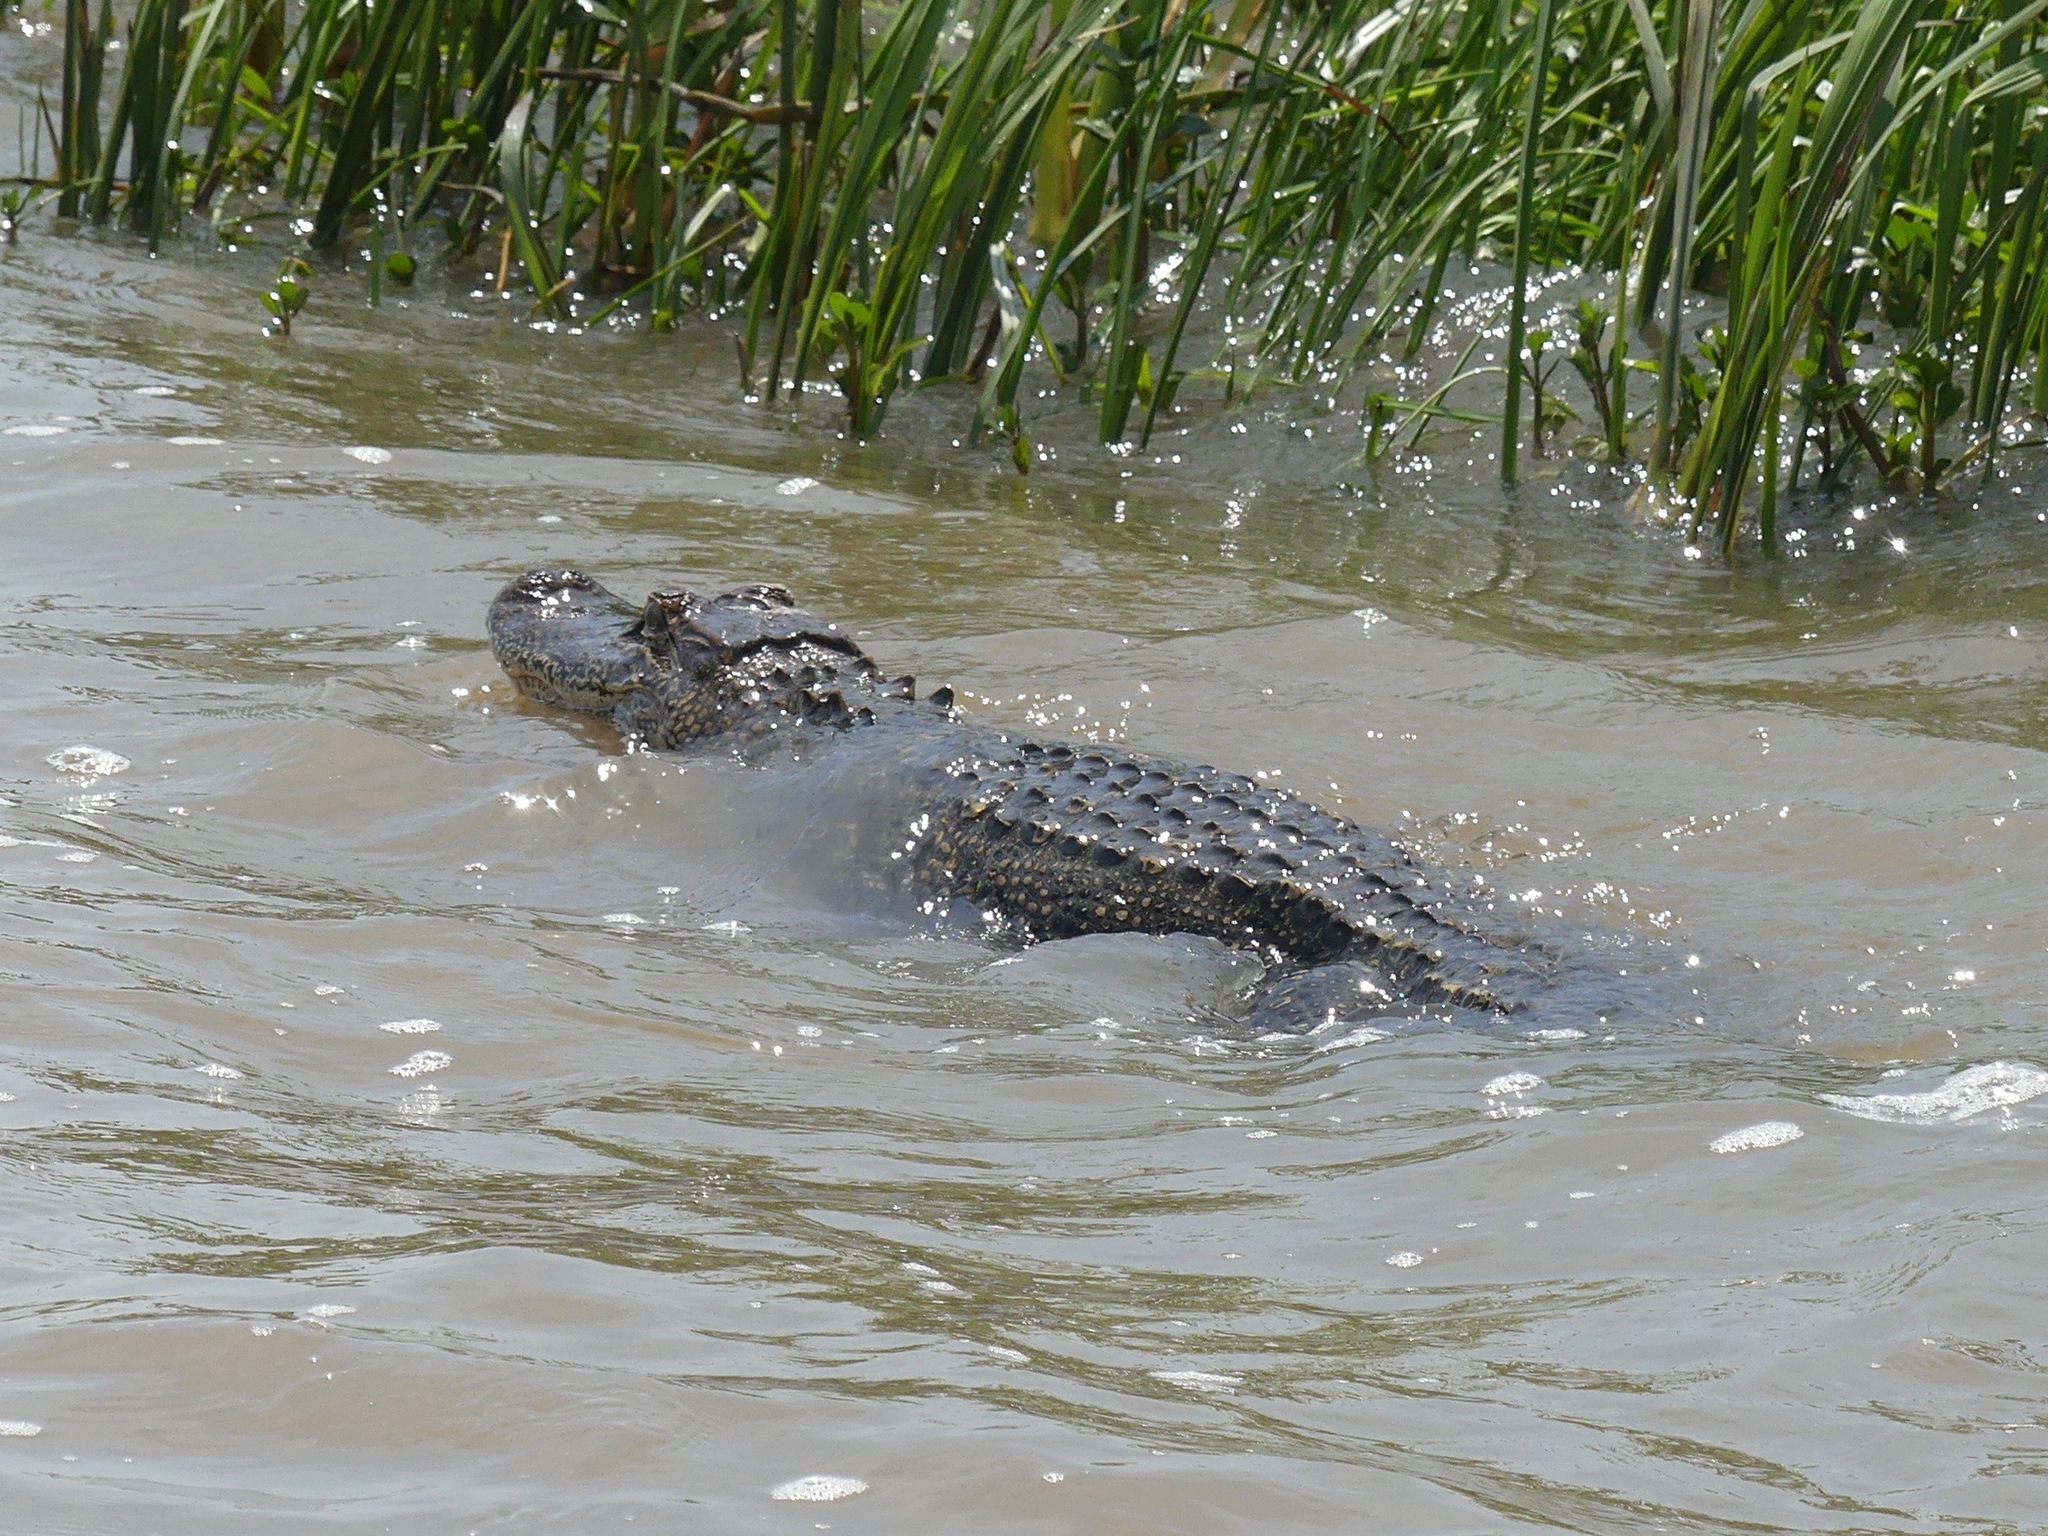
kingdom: Animalia
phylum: Chordata
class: Crocodylia
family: Alligatoridae
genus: Alligator
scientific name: Alligator mississippiensis
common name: American alligator
